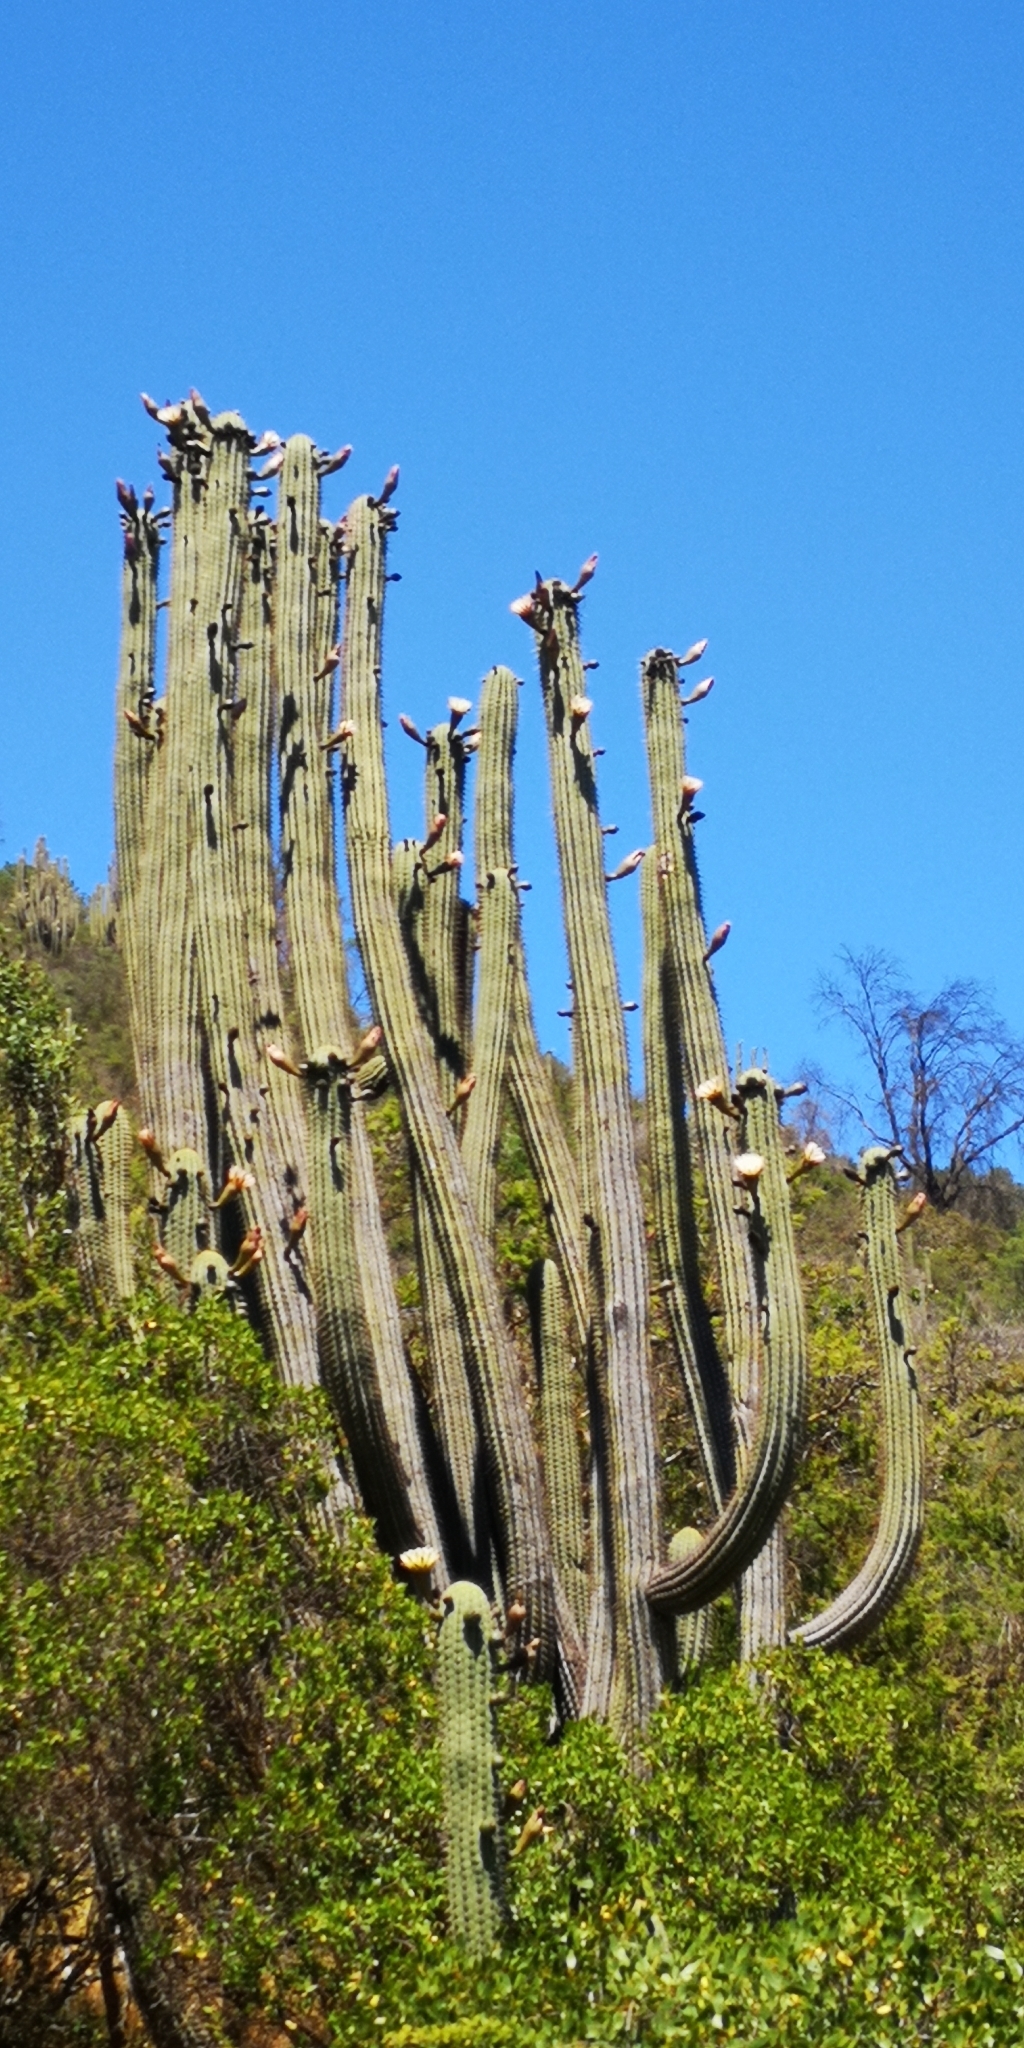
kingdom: Plantae
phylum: Tracheophyta
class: Magnoliopsida
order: Caryophyllales
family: Cactaceae
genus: Leucostele
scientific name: Leucostele chiloensis
